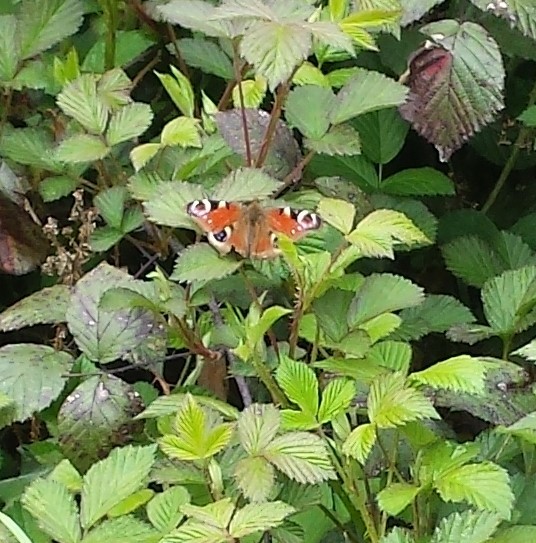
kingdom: Animalia
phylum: Arthropoda
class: Insecta
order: Lepidoptera
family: Nymphalidae
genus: Aglais
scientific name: Aglais io
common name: Peacock
